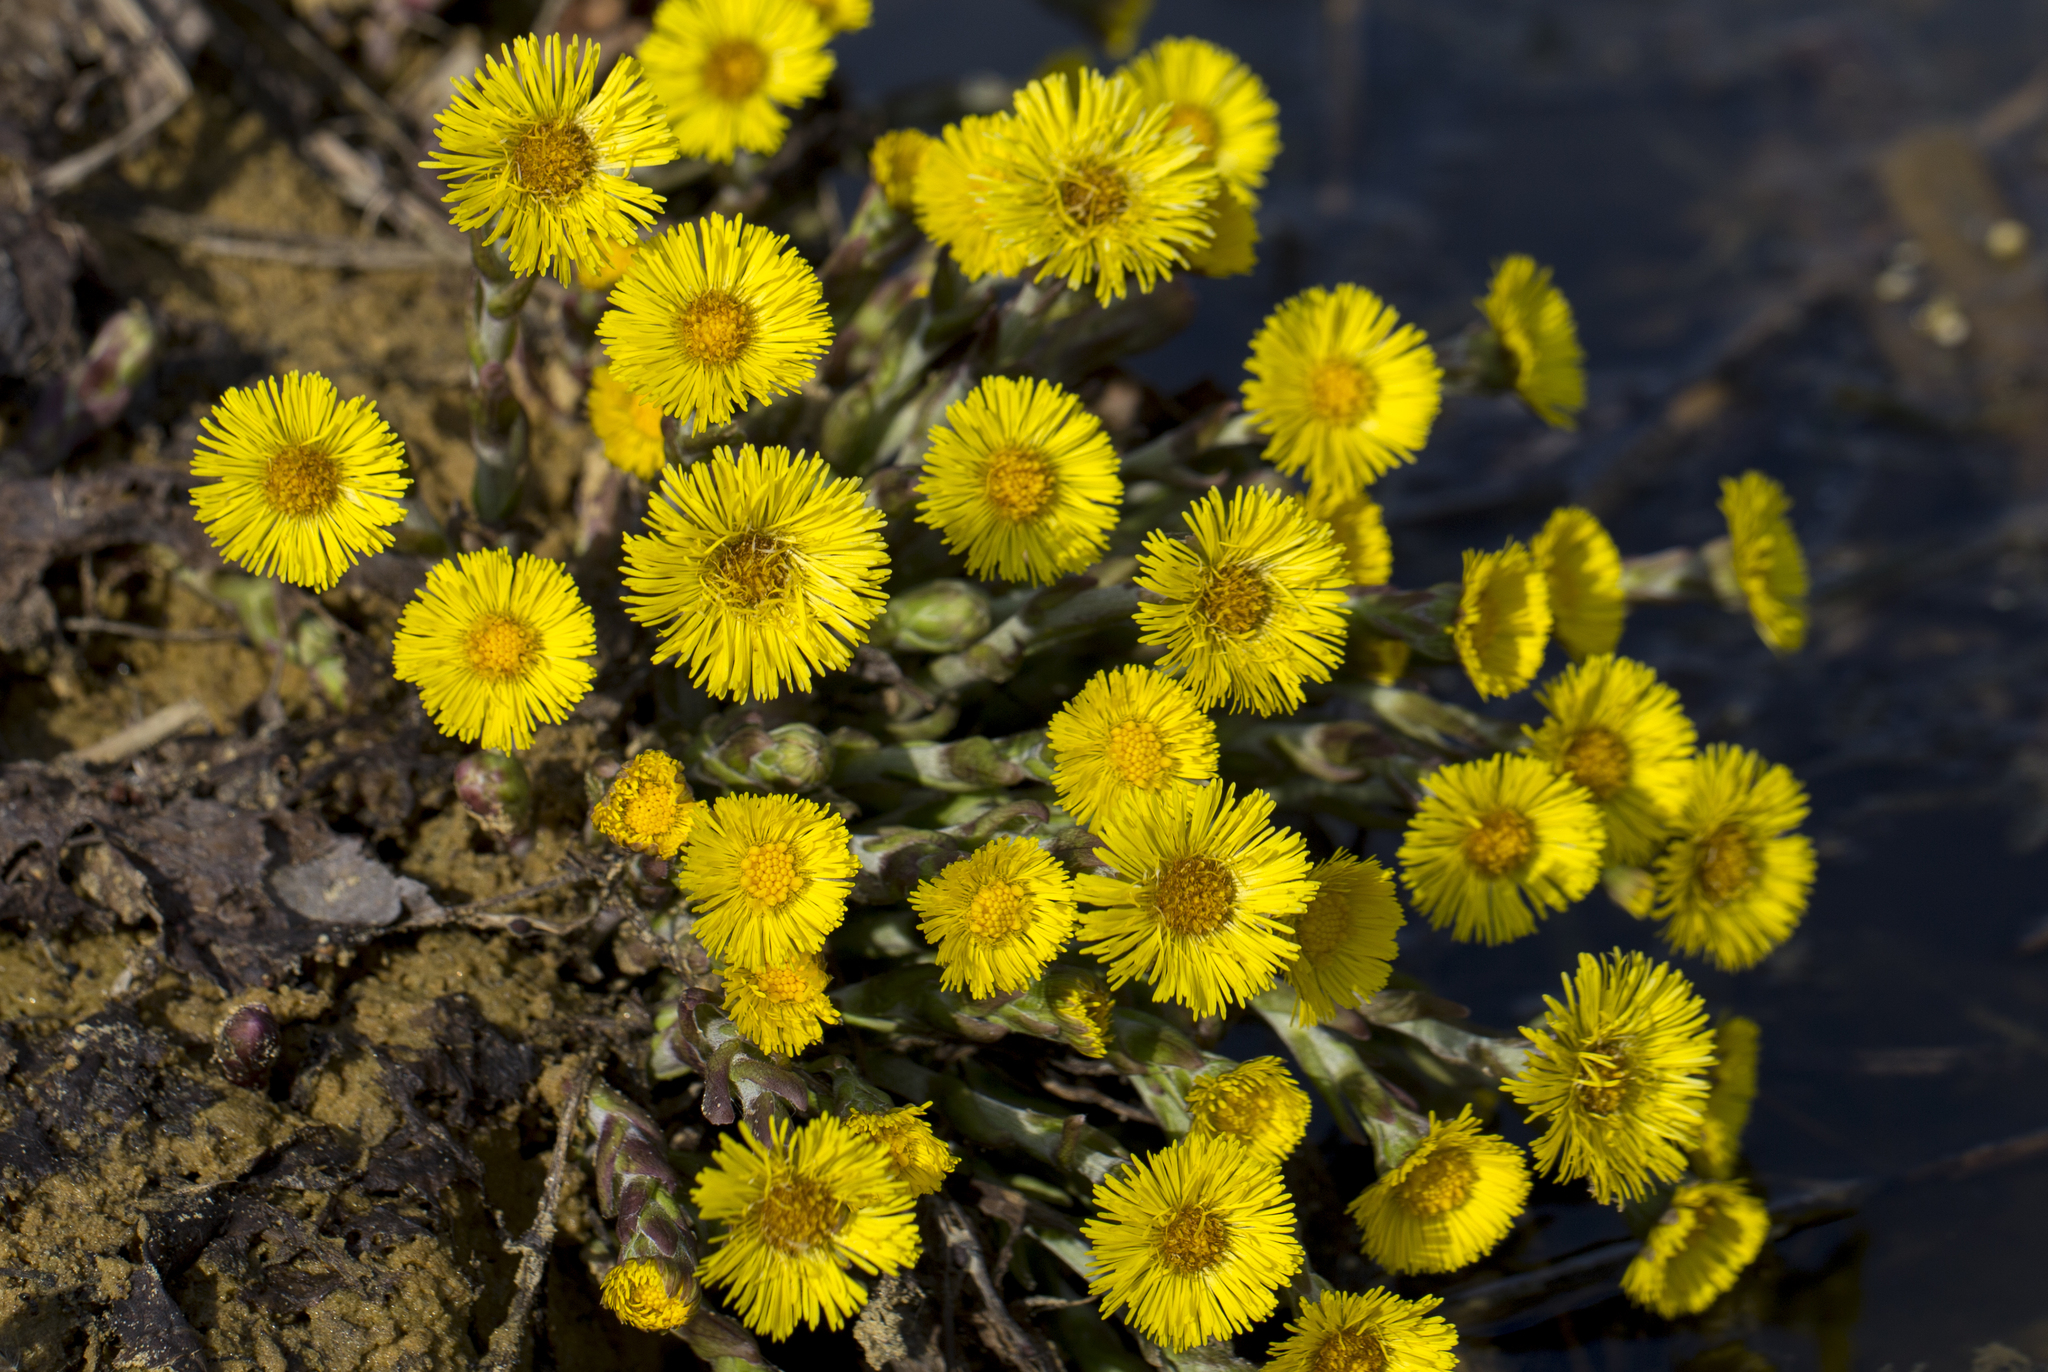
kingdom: Plantae
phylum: Tracheophyta
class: Magnoliopsida
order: Asterales
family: Asteraceae
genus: Tussilago
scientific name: Tussilago farfara
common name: Coltsfoot
